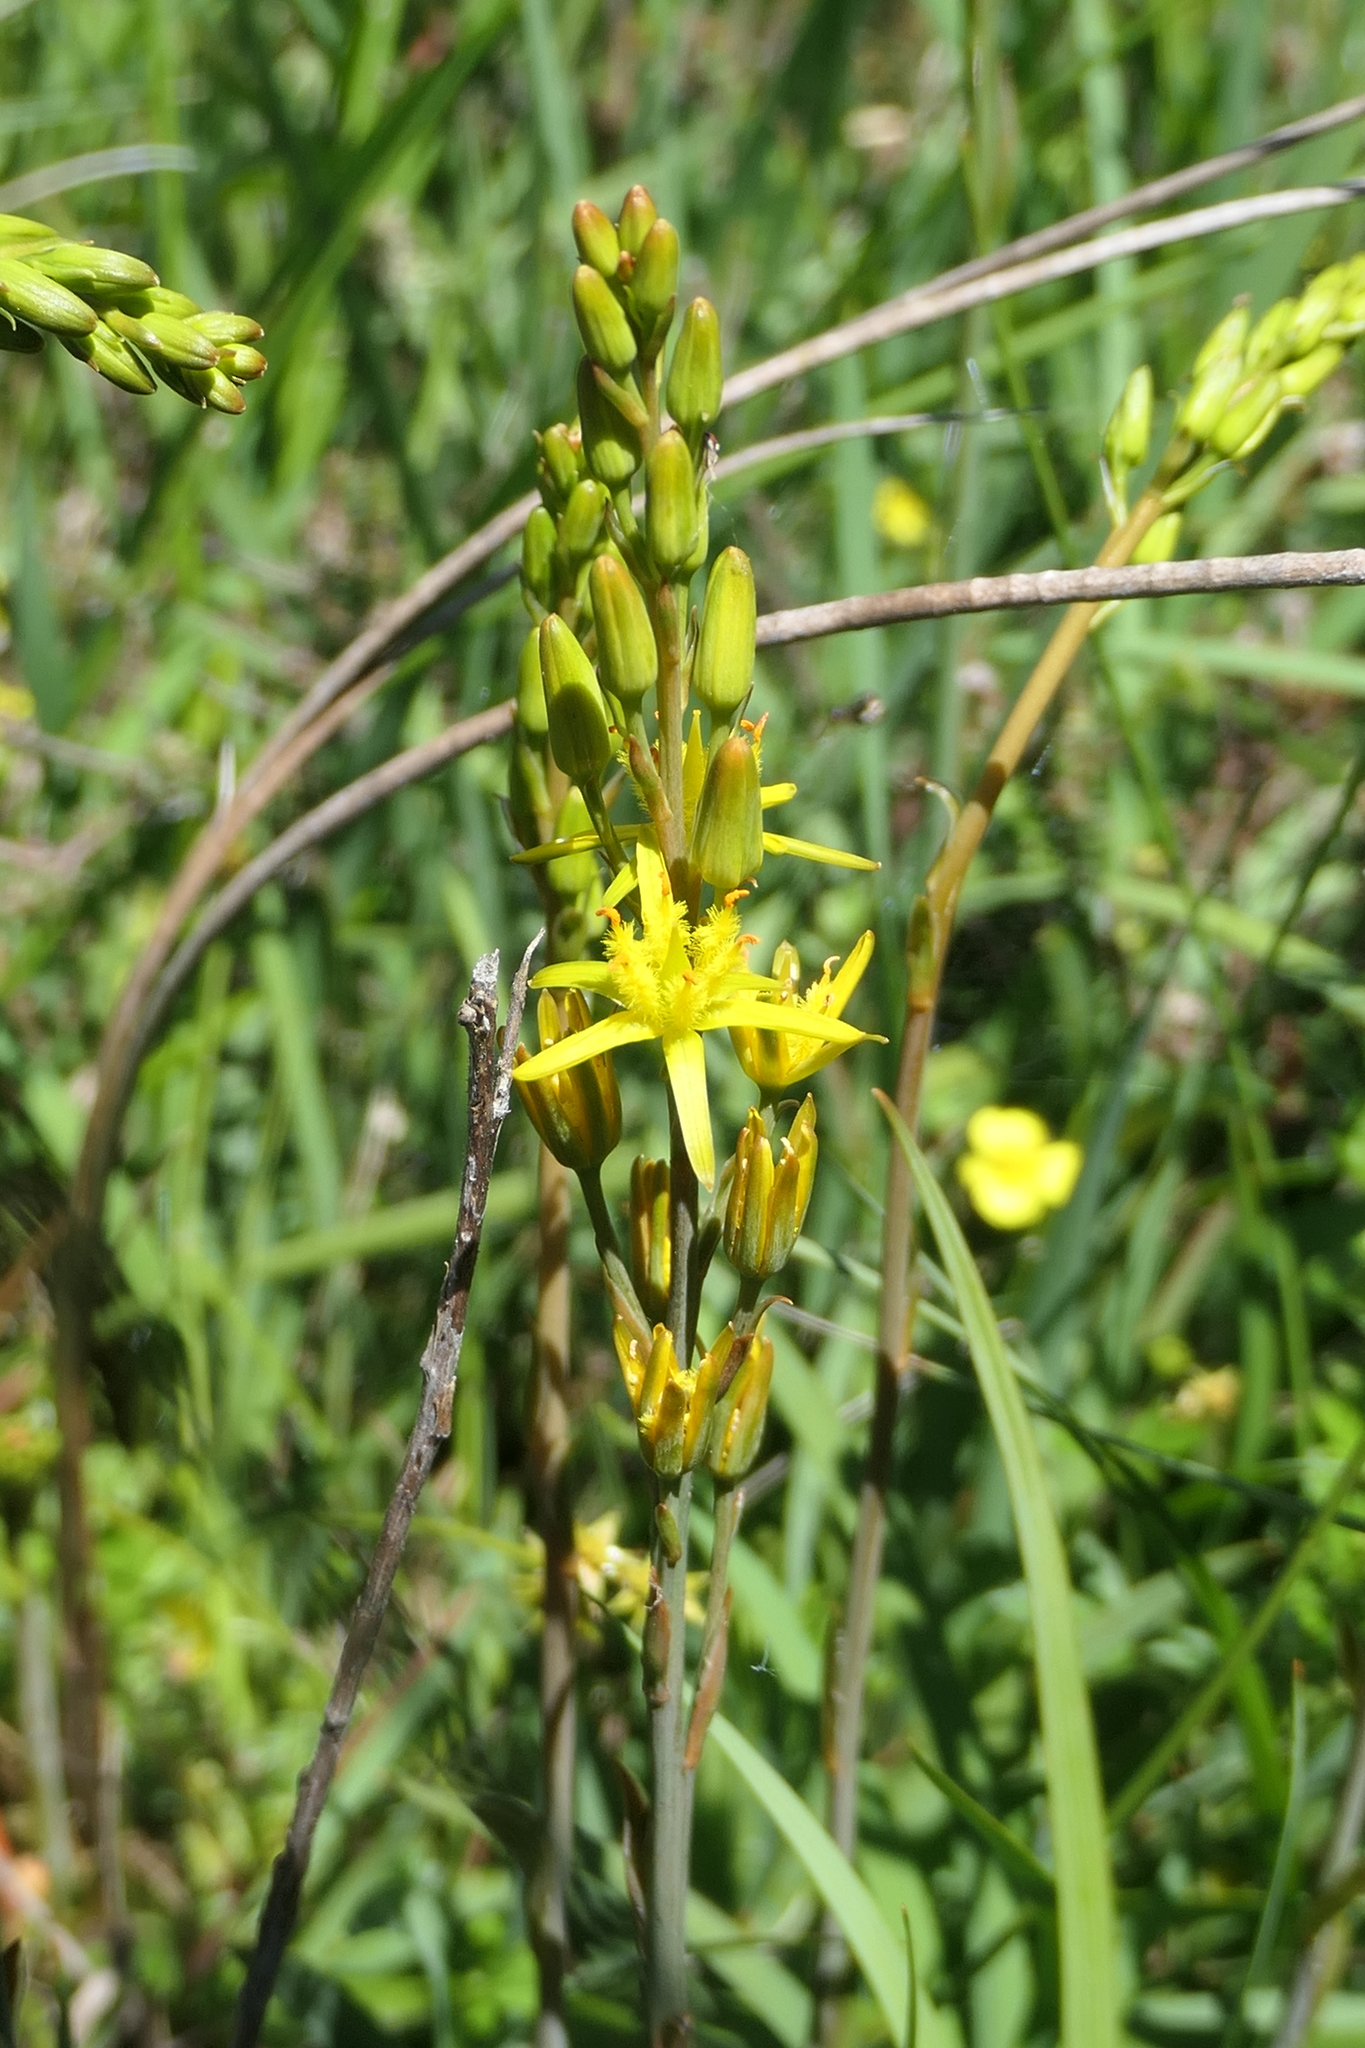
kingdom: Plantae
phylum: Tracheophyta
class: Liliopsida
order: Dioscoreales
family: Nartheciaceae
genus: Narthecium
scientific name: Narthecium ossifragum
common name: Bog asphodel
